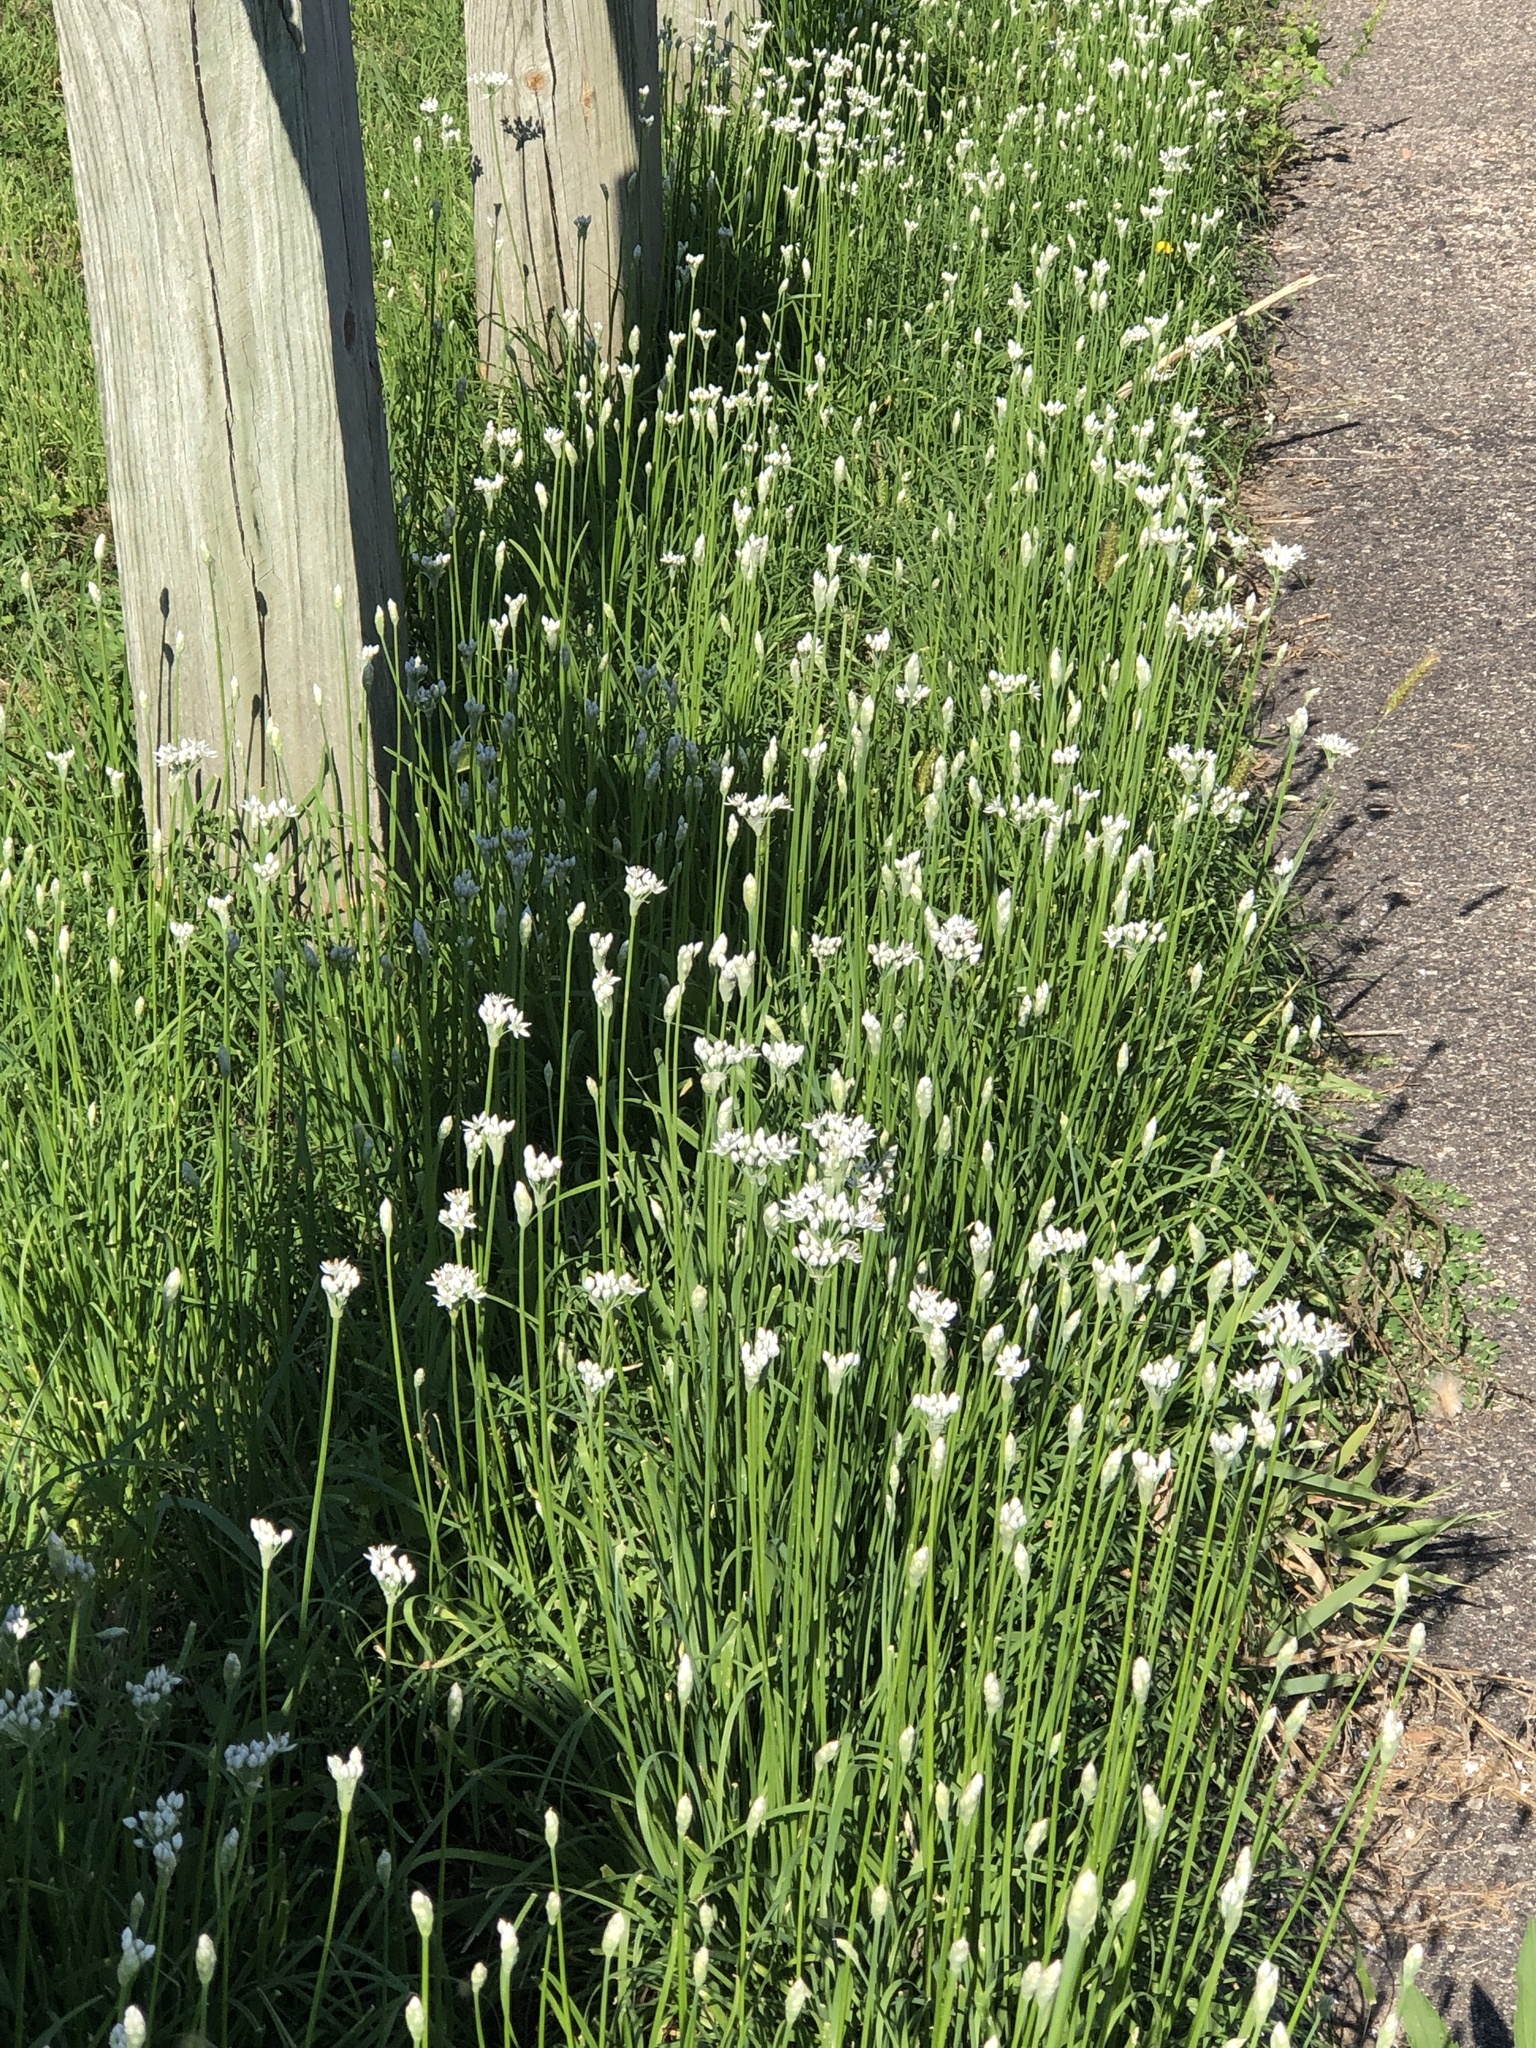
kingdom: Plantae
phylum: Tracheophyta
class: Liliopsida
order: Asparagales
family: Amaryllidaceae
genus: Allium
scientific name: Allium tuberosum
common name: Chinese chives
